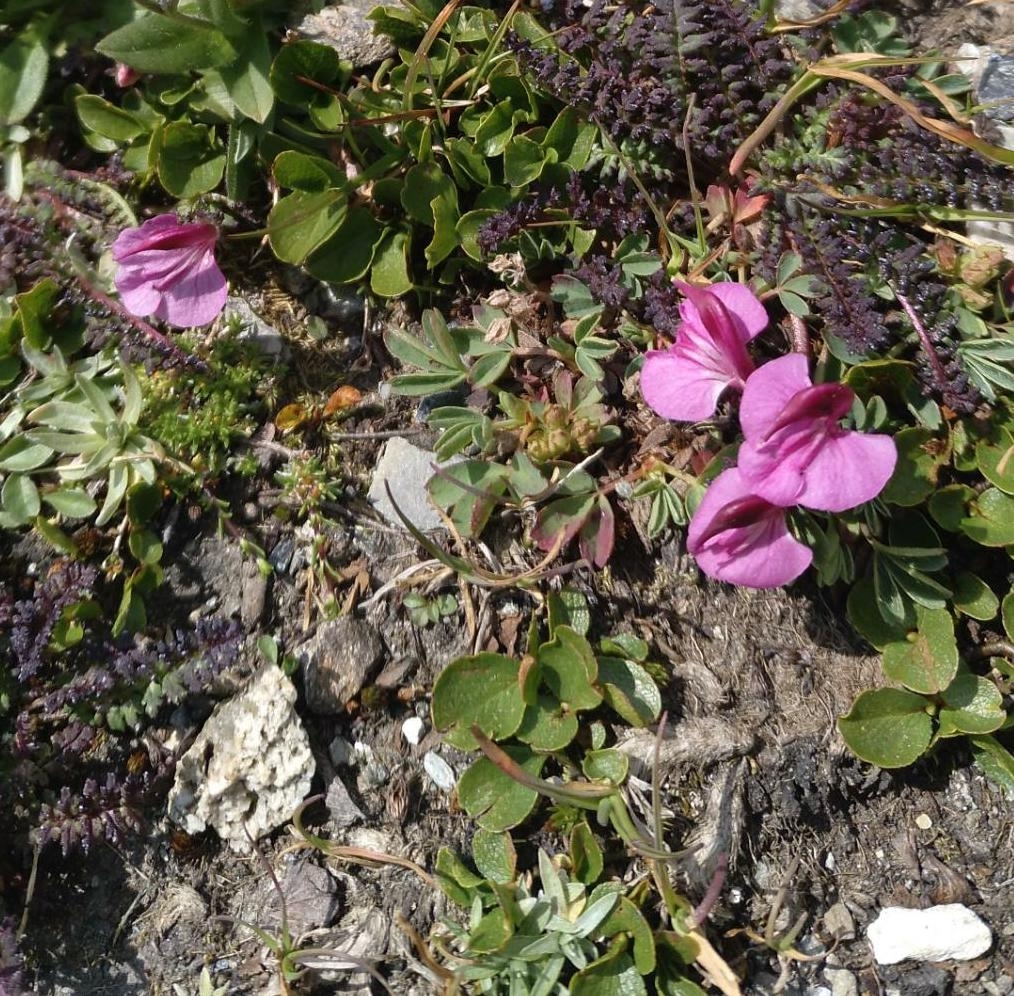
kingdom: Plantae
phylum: Tracheophyta
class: Magnoliopsida
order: Lamiales
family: Orobanchaceae
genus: Pedicularis
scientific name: Pedicularis kerneri
